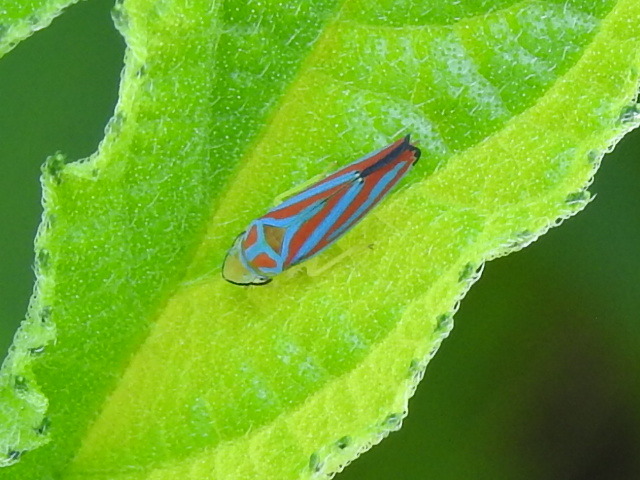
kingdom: Animalia
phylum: Arthropoda
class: Insecta
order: Hemiptera
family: Cicadellidae
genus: Graphocephala
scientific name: Graphocephala coccinea
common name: Candy-striped leafhopper
